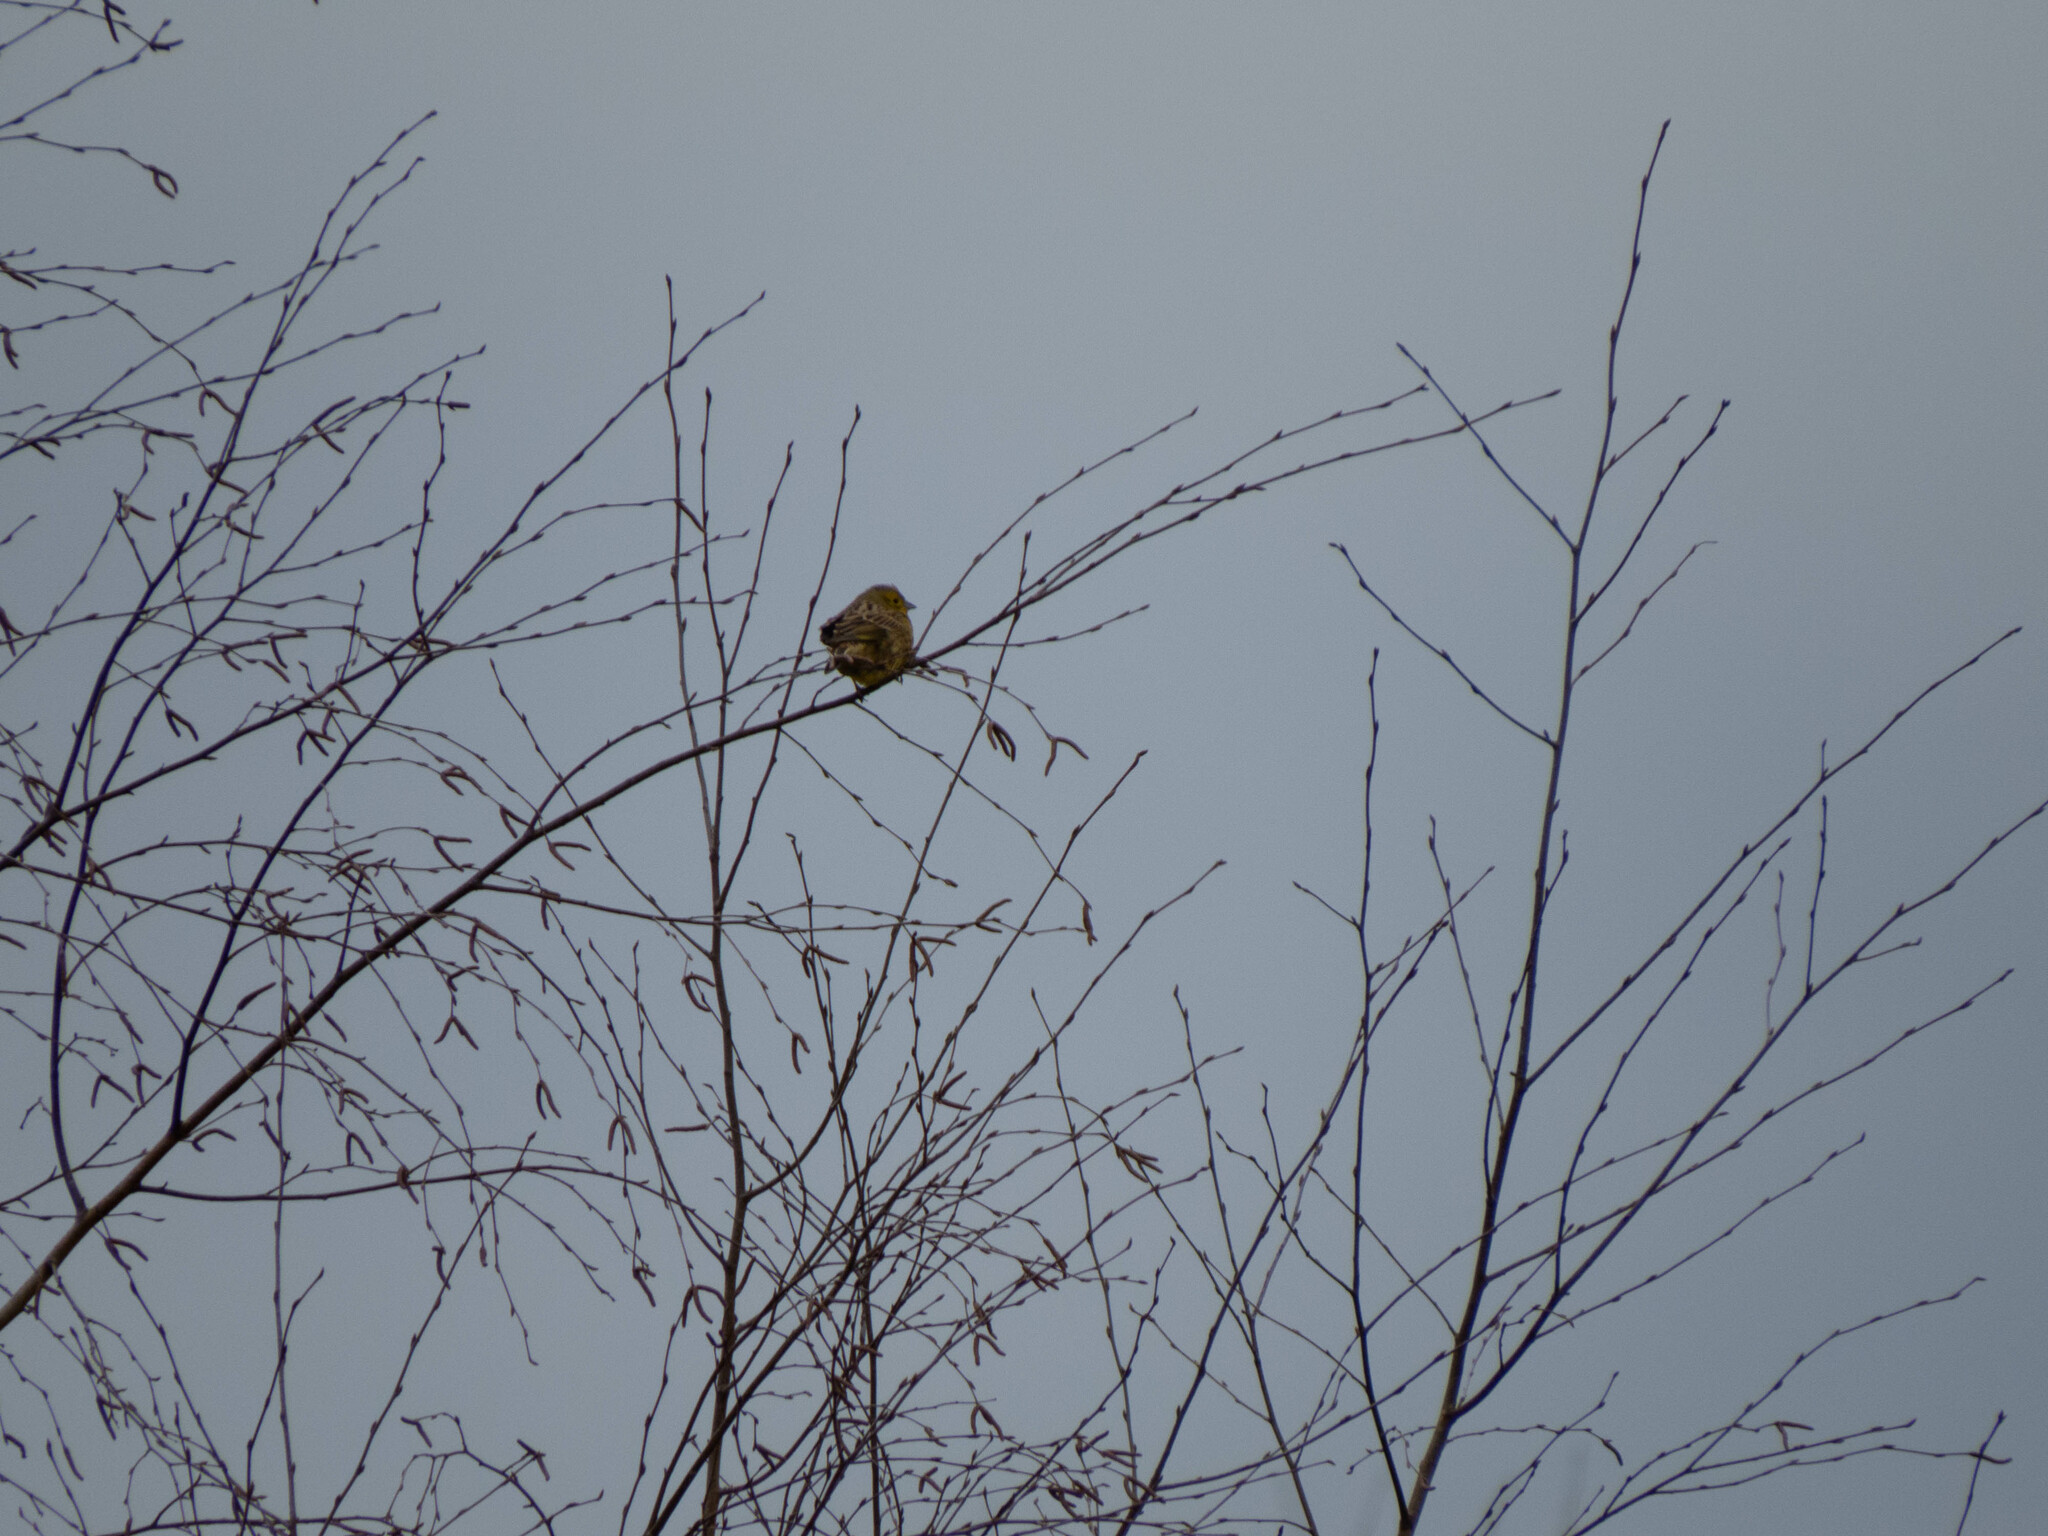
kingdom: Animalia
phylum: Chordata
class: Aves
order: Passeriformes
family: Emberizidae
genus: Emberiza
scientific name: Emberiza citrinella
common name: Yellowhammer
